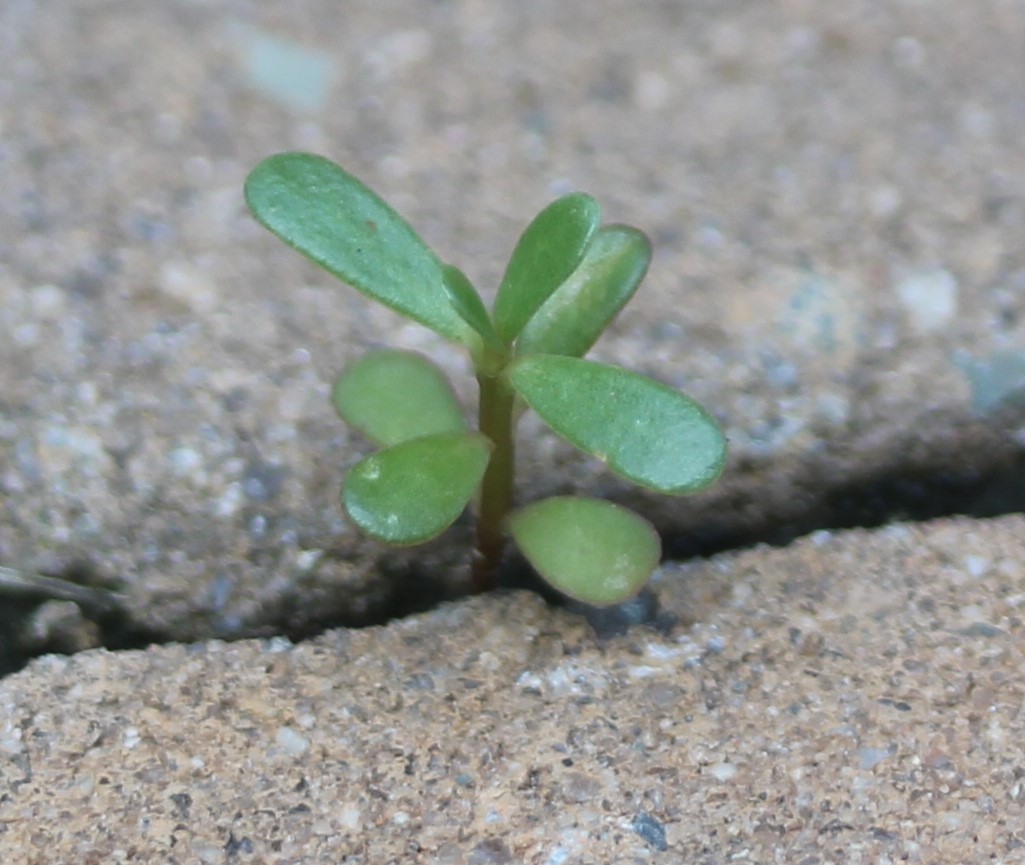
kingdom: Plantae
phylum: Tracheophyta
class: Magnoliopsida
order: Caryophyllales
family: Portulacaceae
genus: Portulaca
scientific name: Portulaca oleracea
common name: Common purslane
